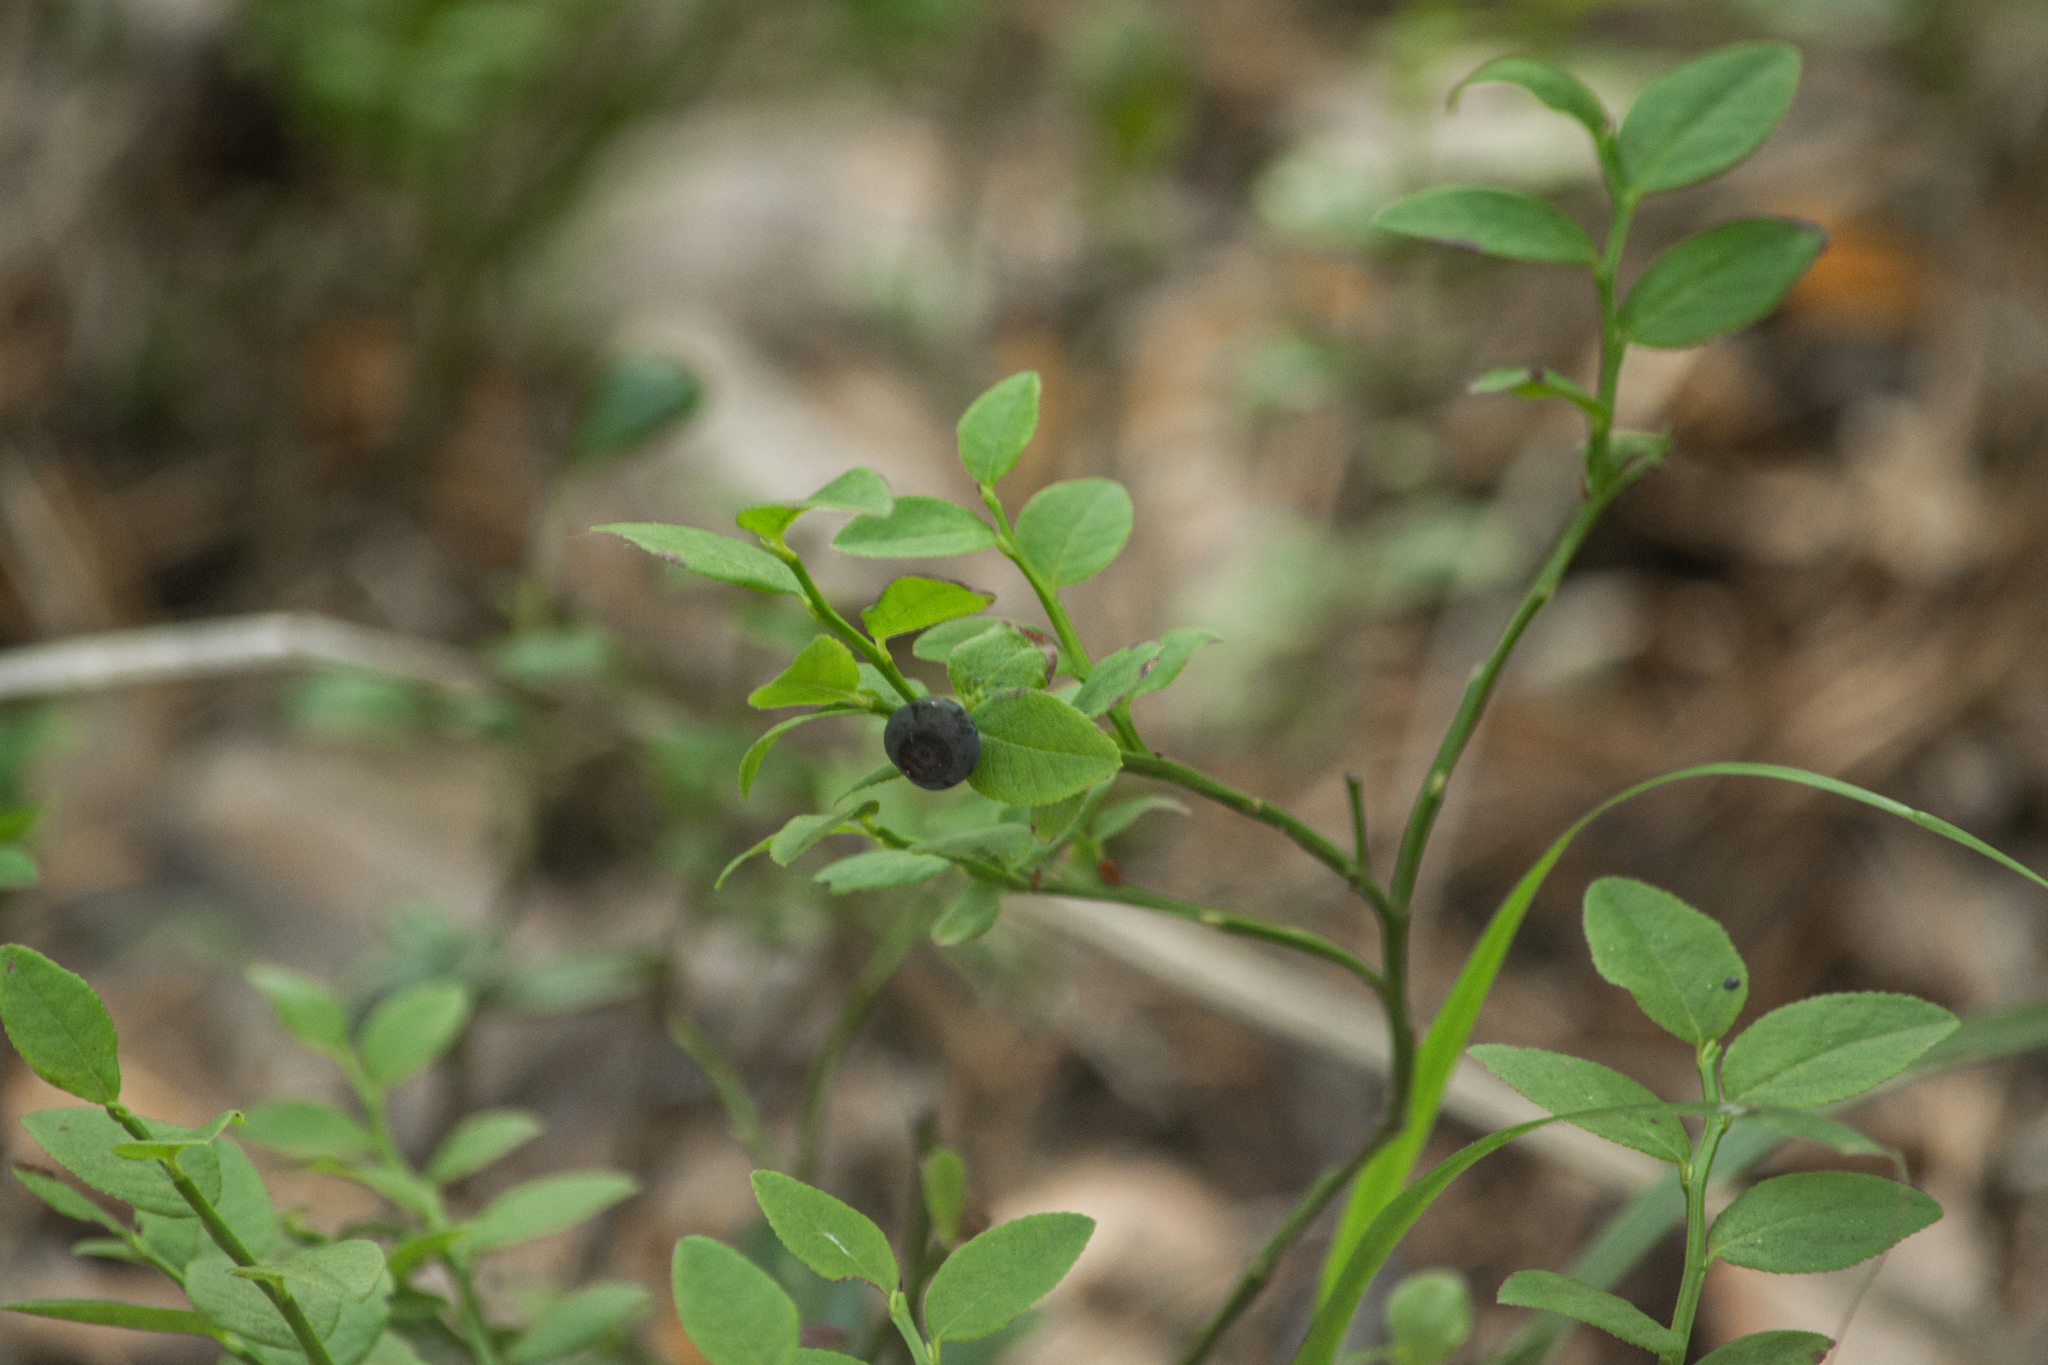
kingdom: Plantae
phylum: Tracheophyta
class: Magnoliopsida
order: Ericales
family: Ericaceae
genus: Vaccinium
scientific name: Vaccinium myrtillus
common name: Bilberry
